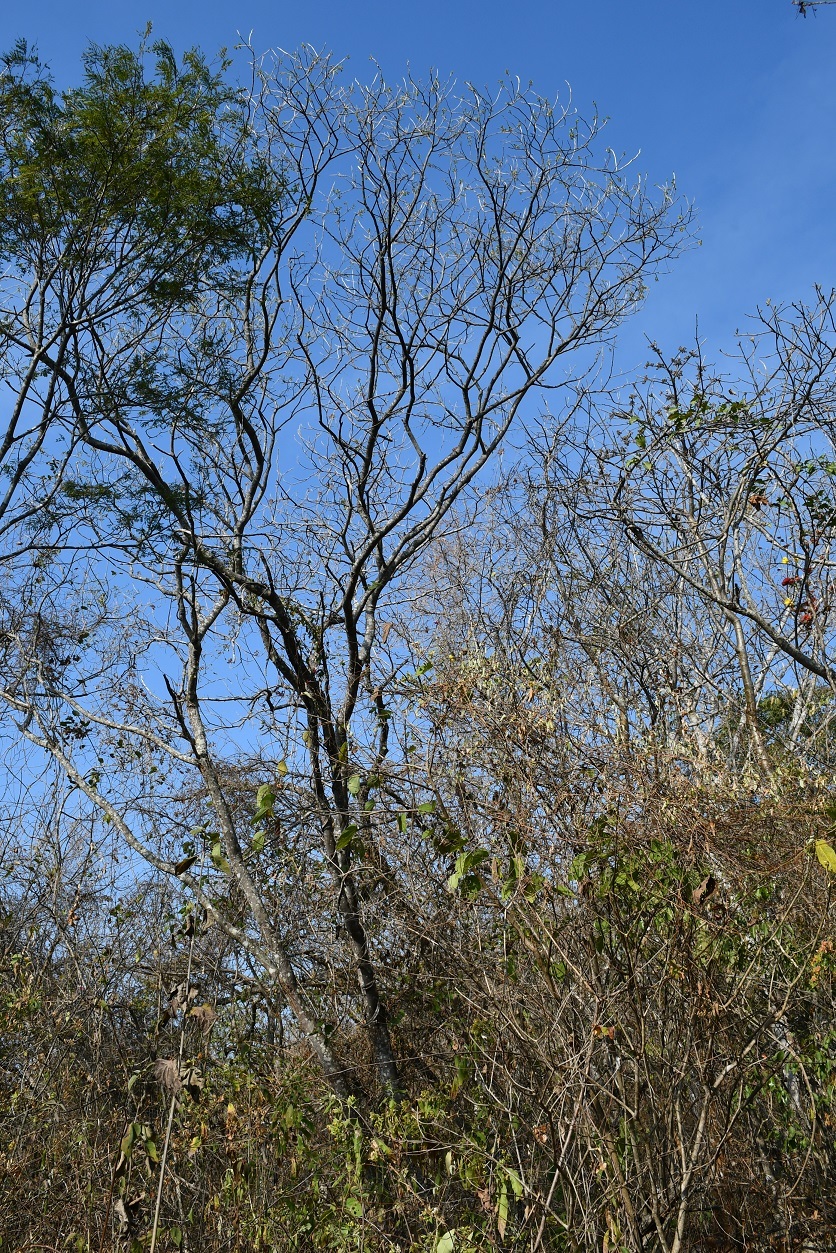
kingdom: Plantae
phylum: Tracheophyta
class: Magnoliopsida
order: Fabales
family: Fabaceae
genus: Diphysa
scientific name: Diphysa americana
